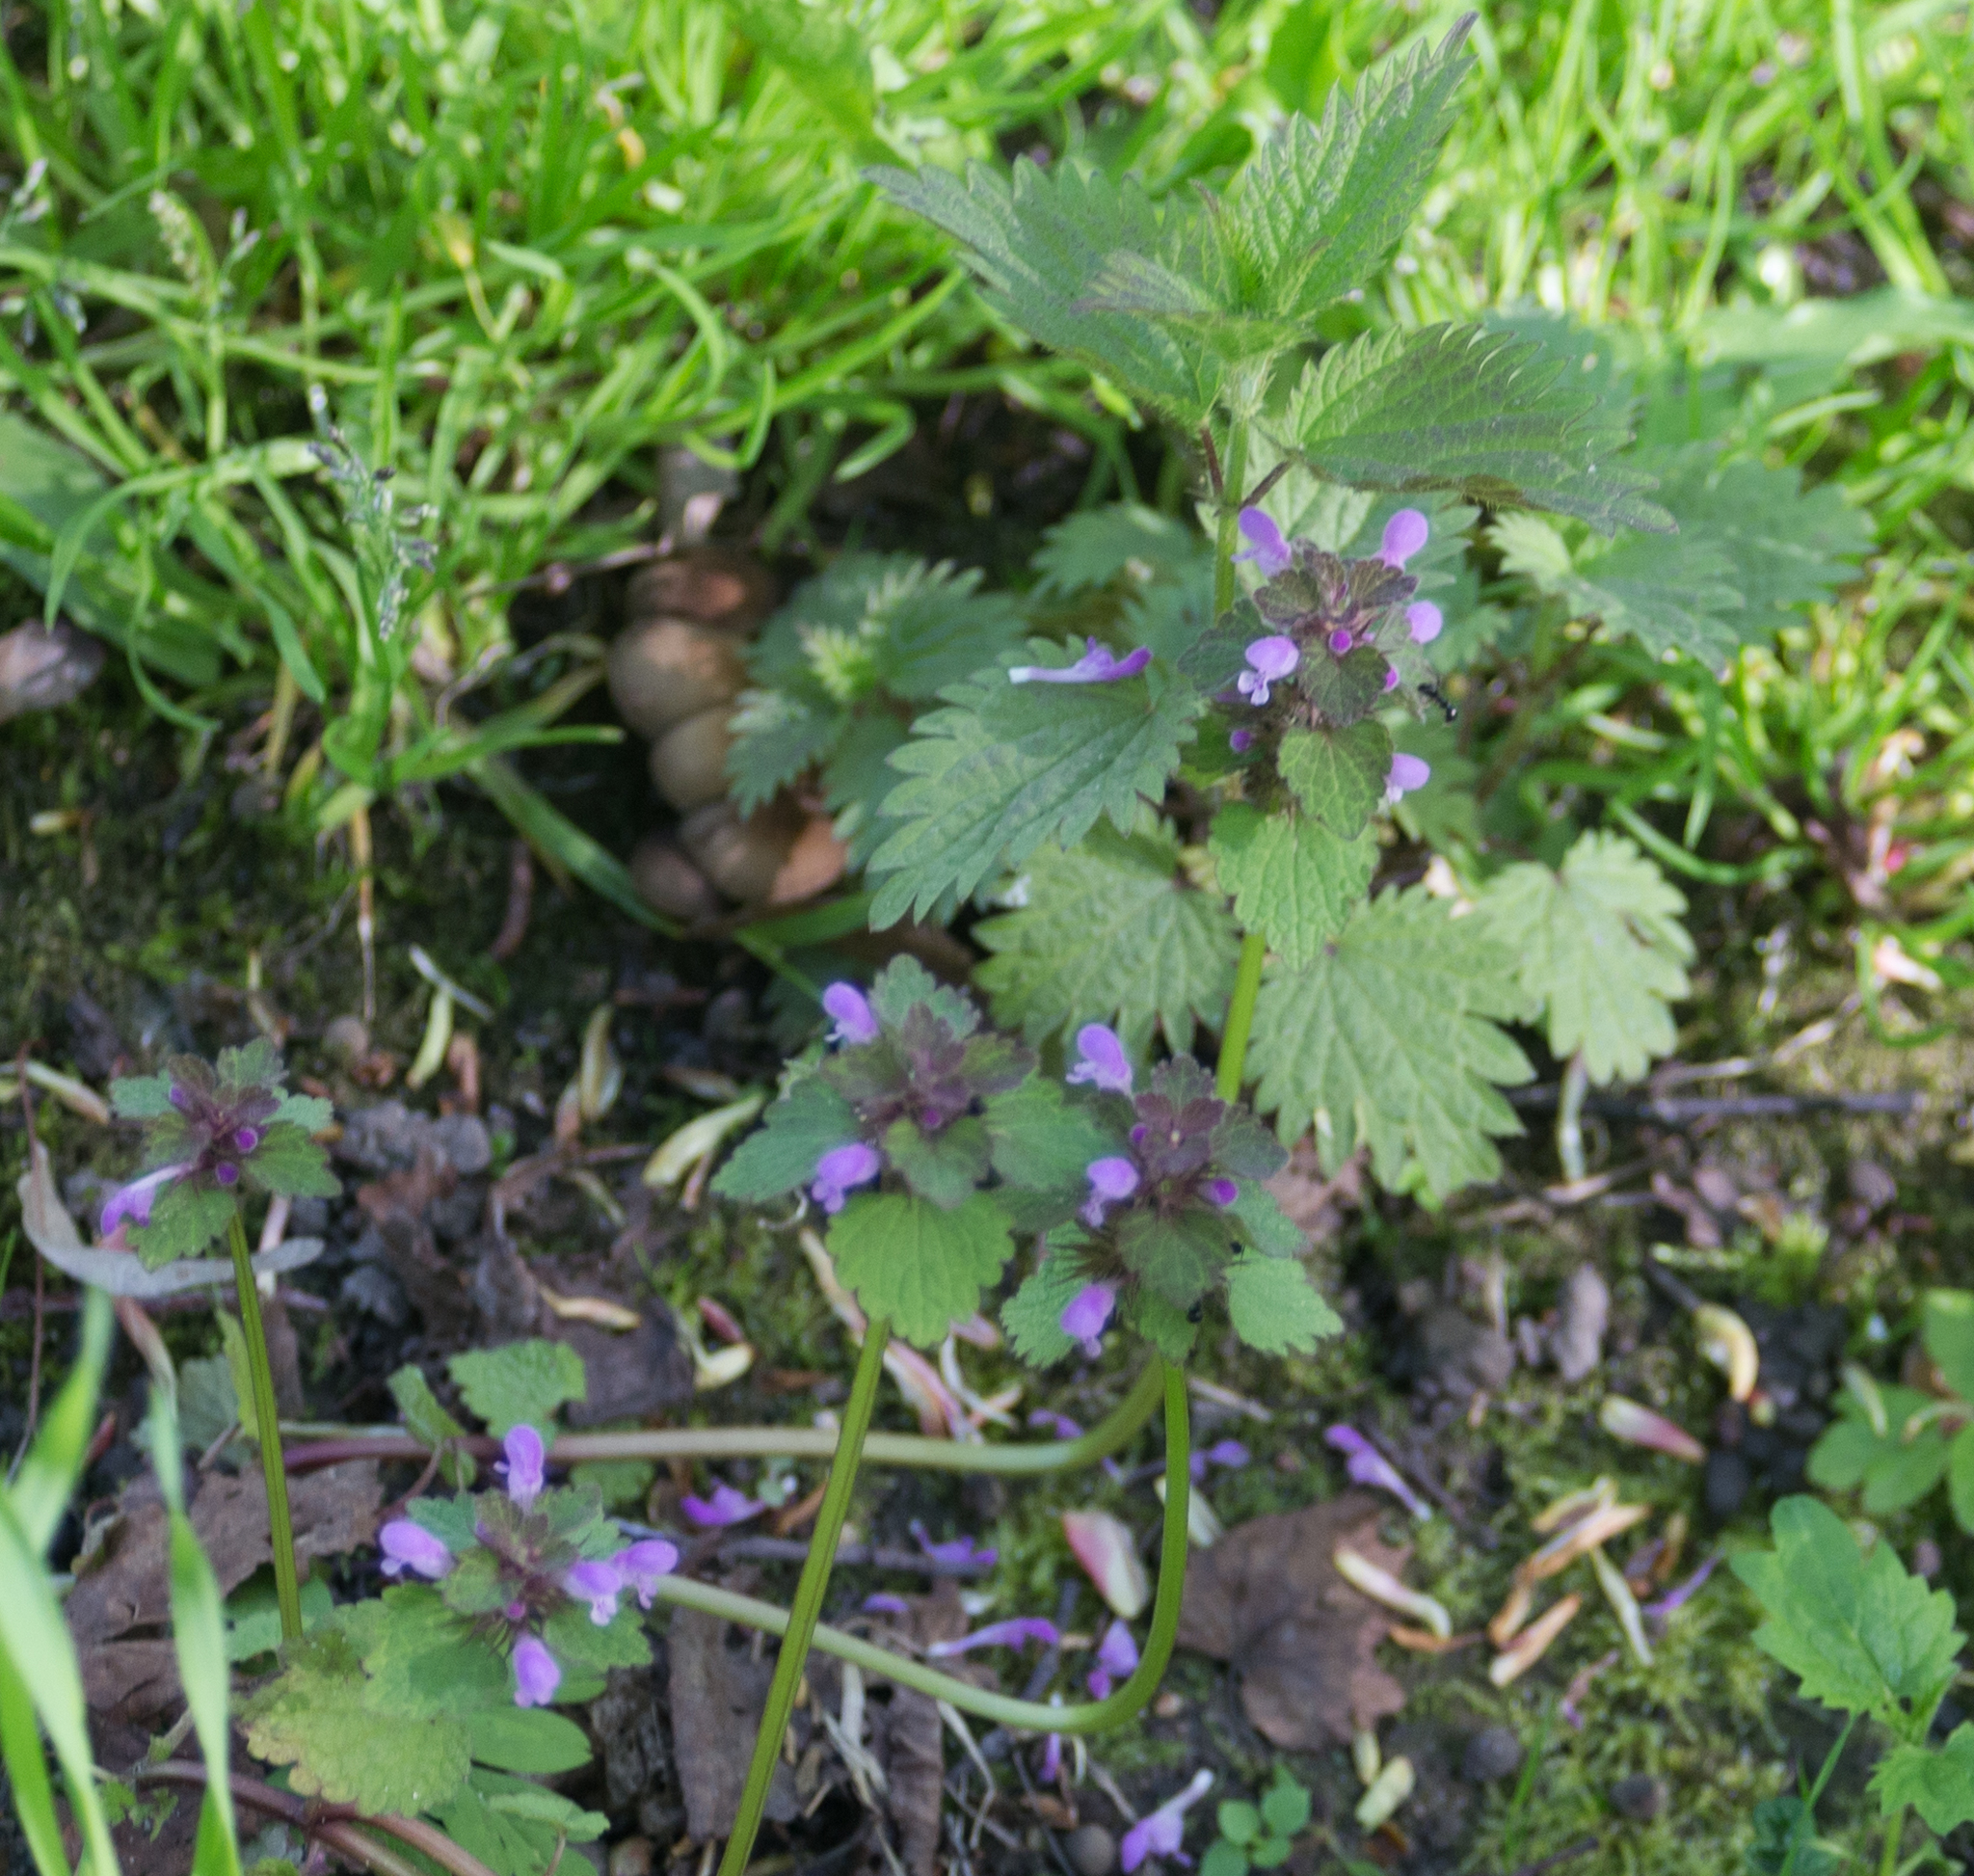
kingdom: Plantae
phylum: Tracheophyta
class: Magnoliopsida
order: Lamiales
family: Lamiaceae
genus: Lamium
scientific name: Lamium purpureum
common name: Red dead-nettle
